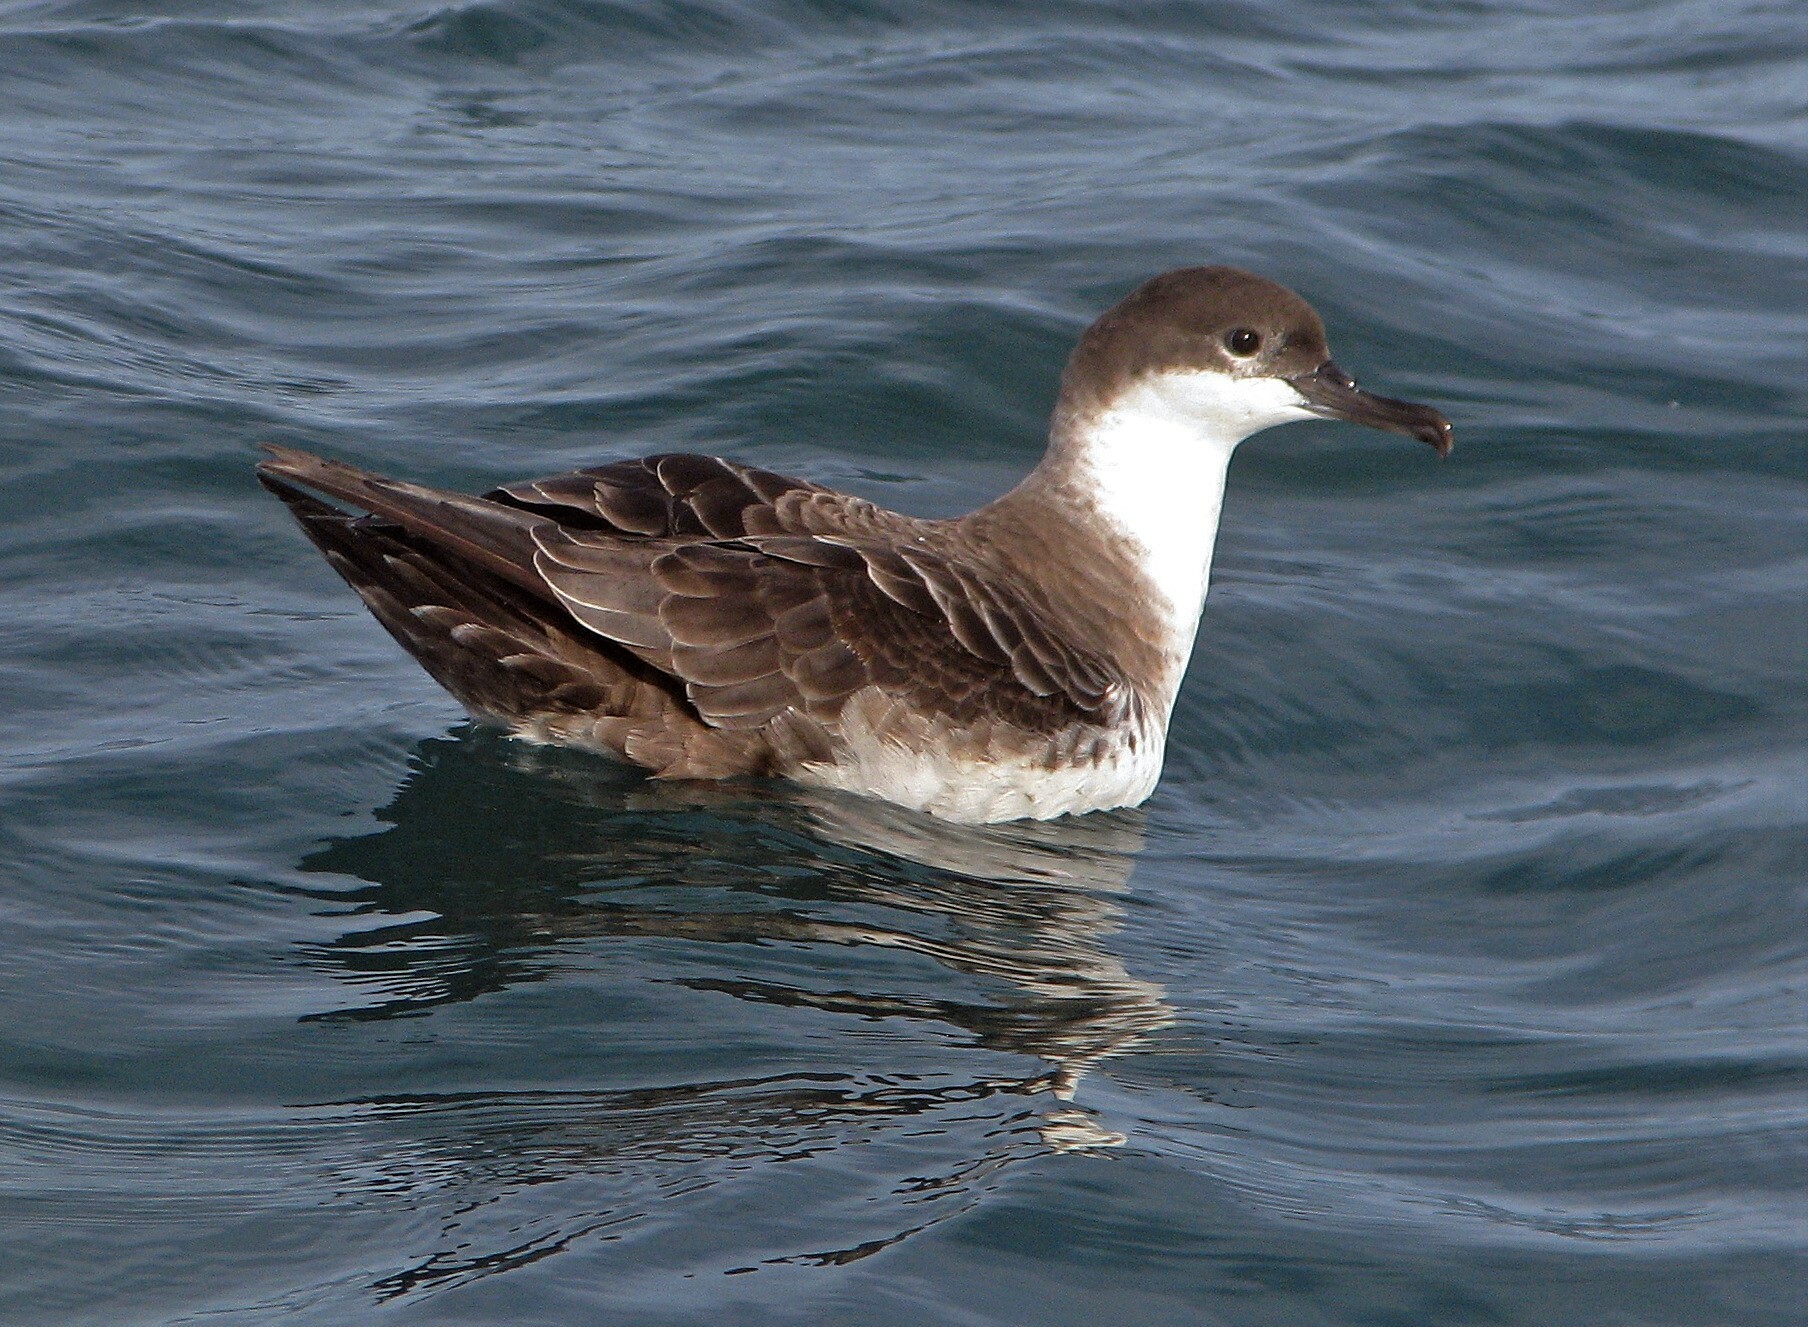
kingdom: Animalia
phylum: Chordata
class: Aves
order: Procellariiformes
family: Procellariidae
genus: Puffinus
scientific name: Puffinus gravis
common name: Great shearwater
